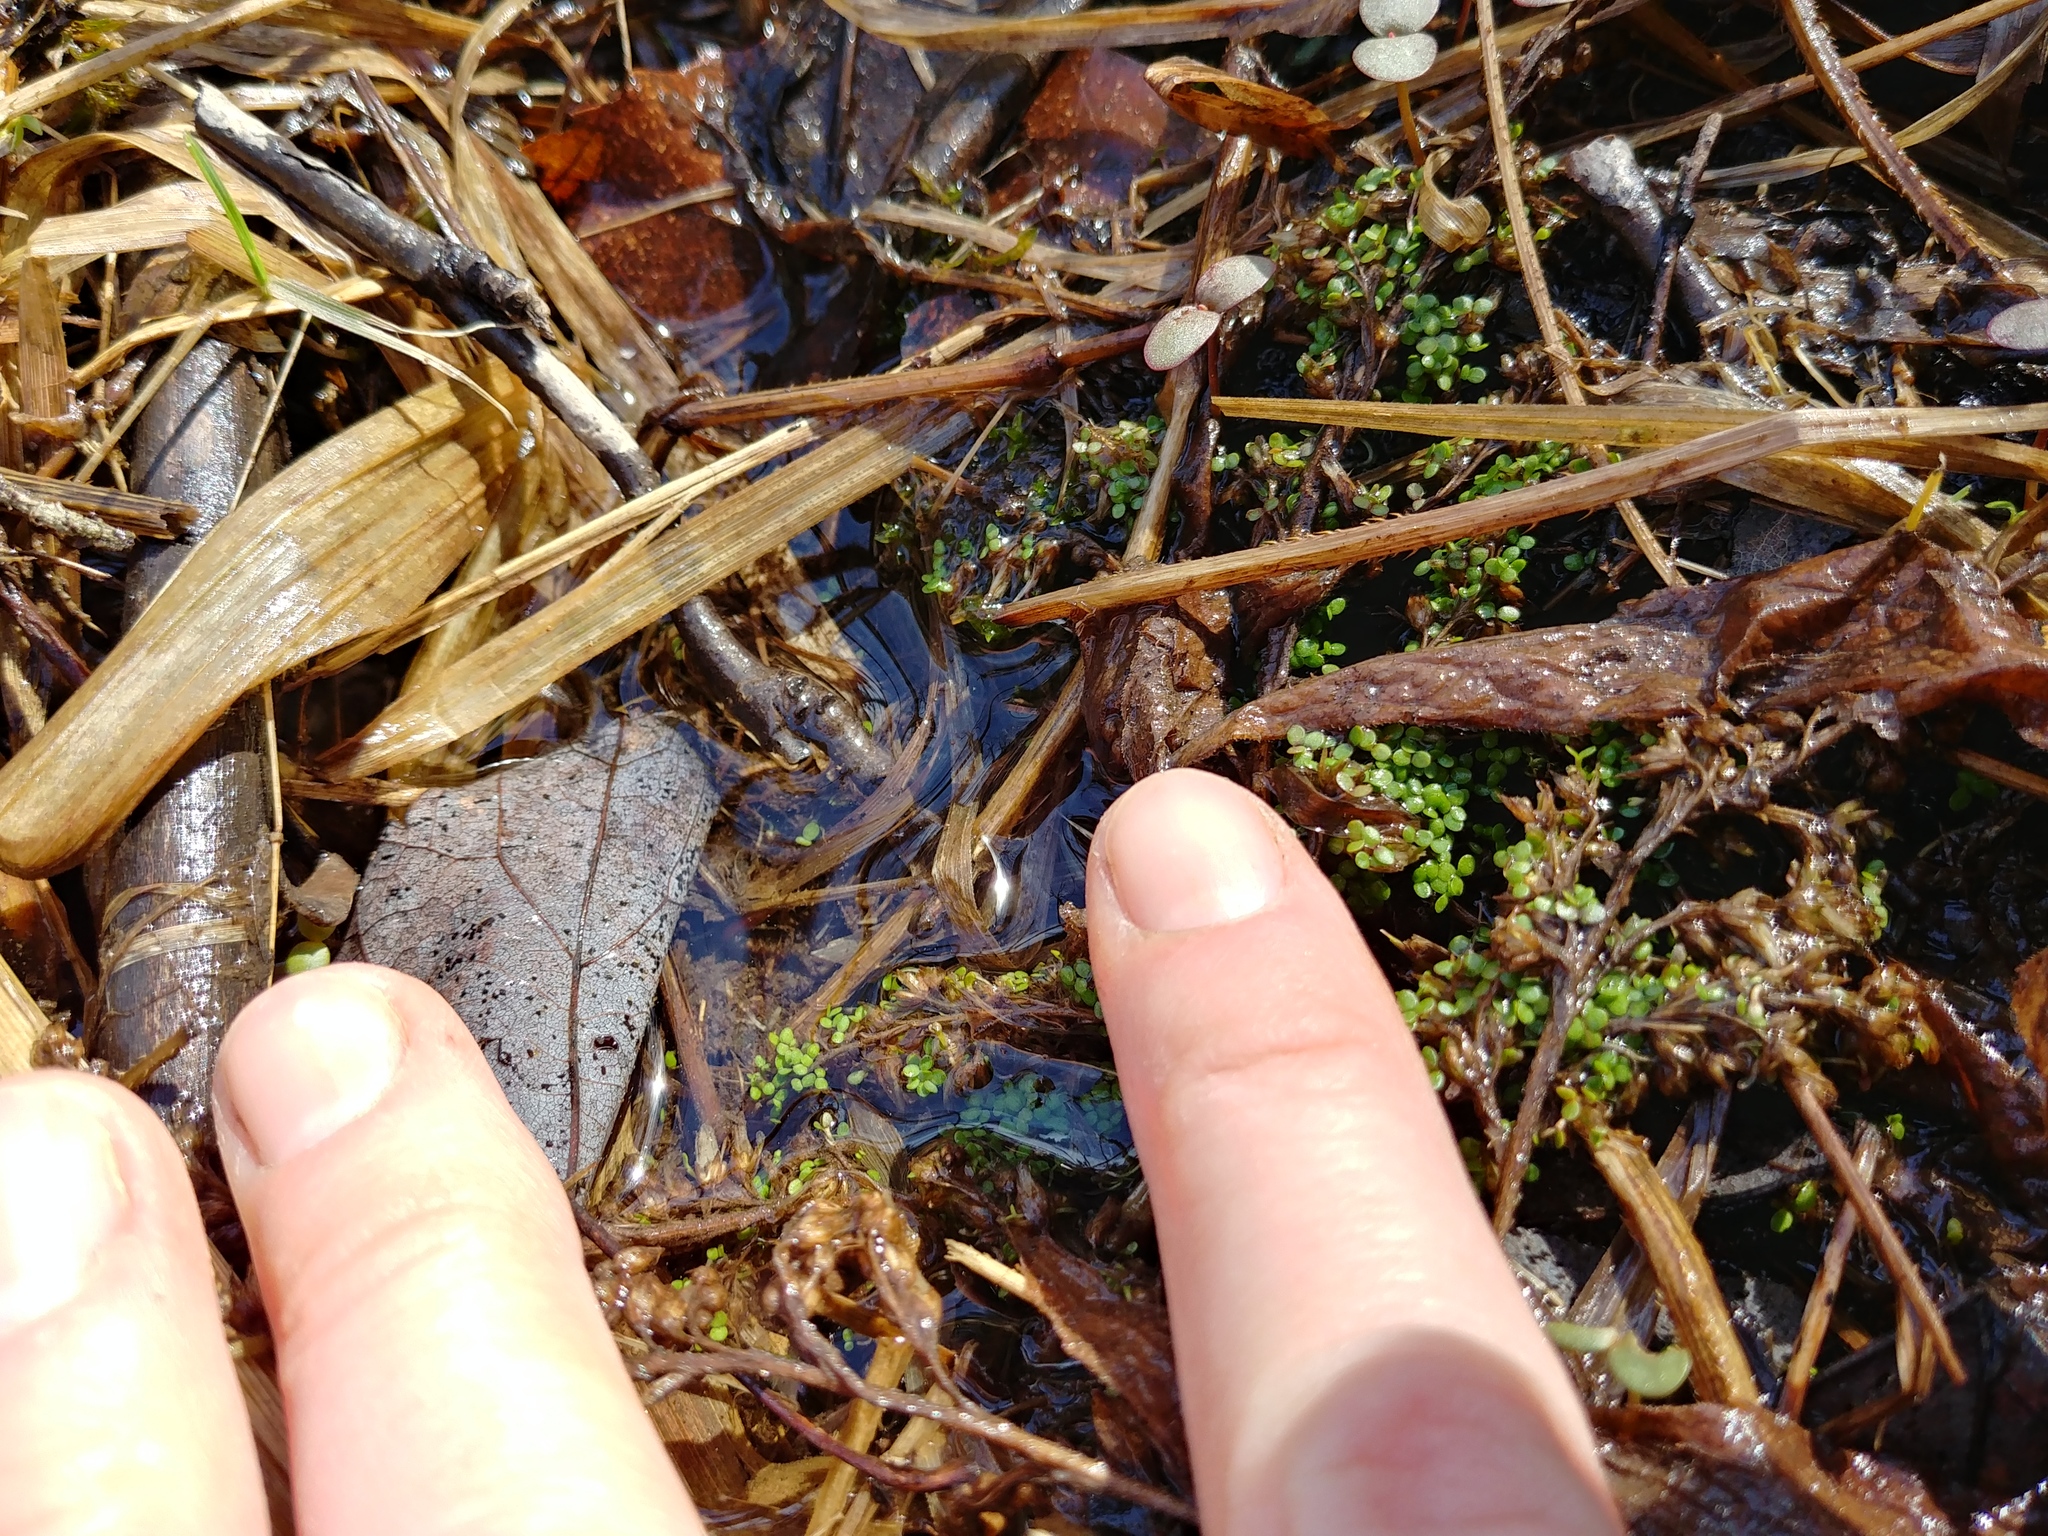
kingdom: Plantae
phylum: Tracheophyta
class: Liliopsida
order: Alismatales
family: Araceae
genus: Lemna
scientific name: Lemna minor
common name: Common duckweed
